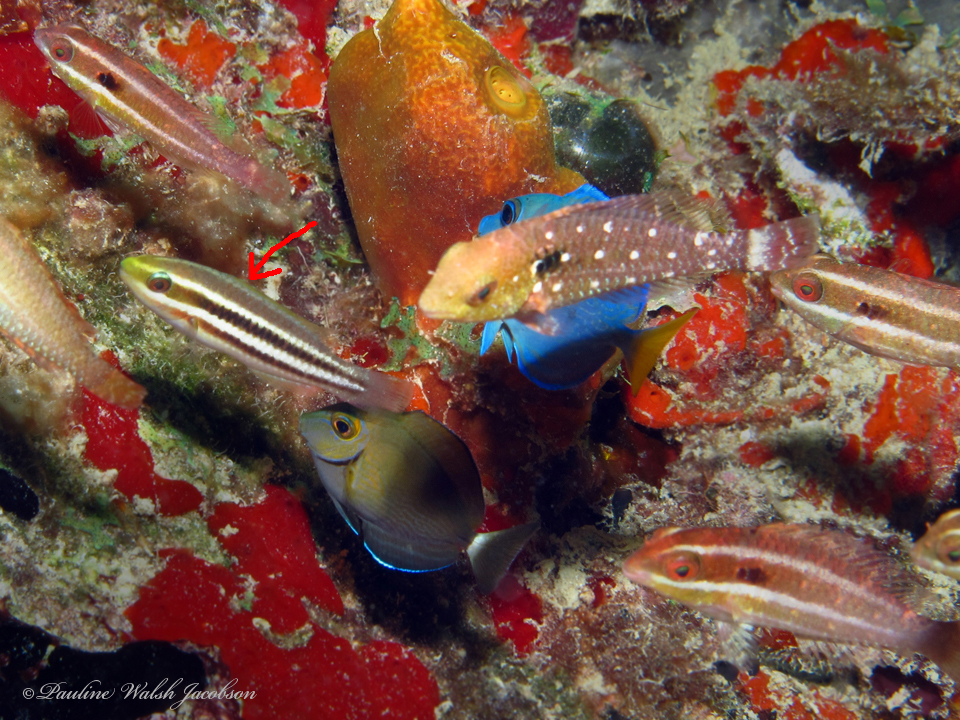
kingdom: Animalia
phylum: Chordata
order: Perciformes
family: Scaridae
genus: Scarus
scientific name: Scarus iseri
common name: Striped parrotfish
